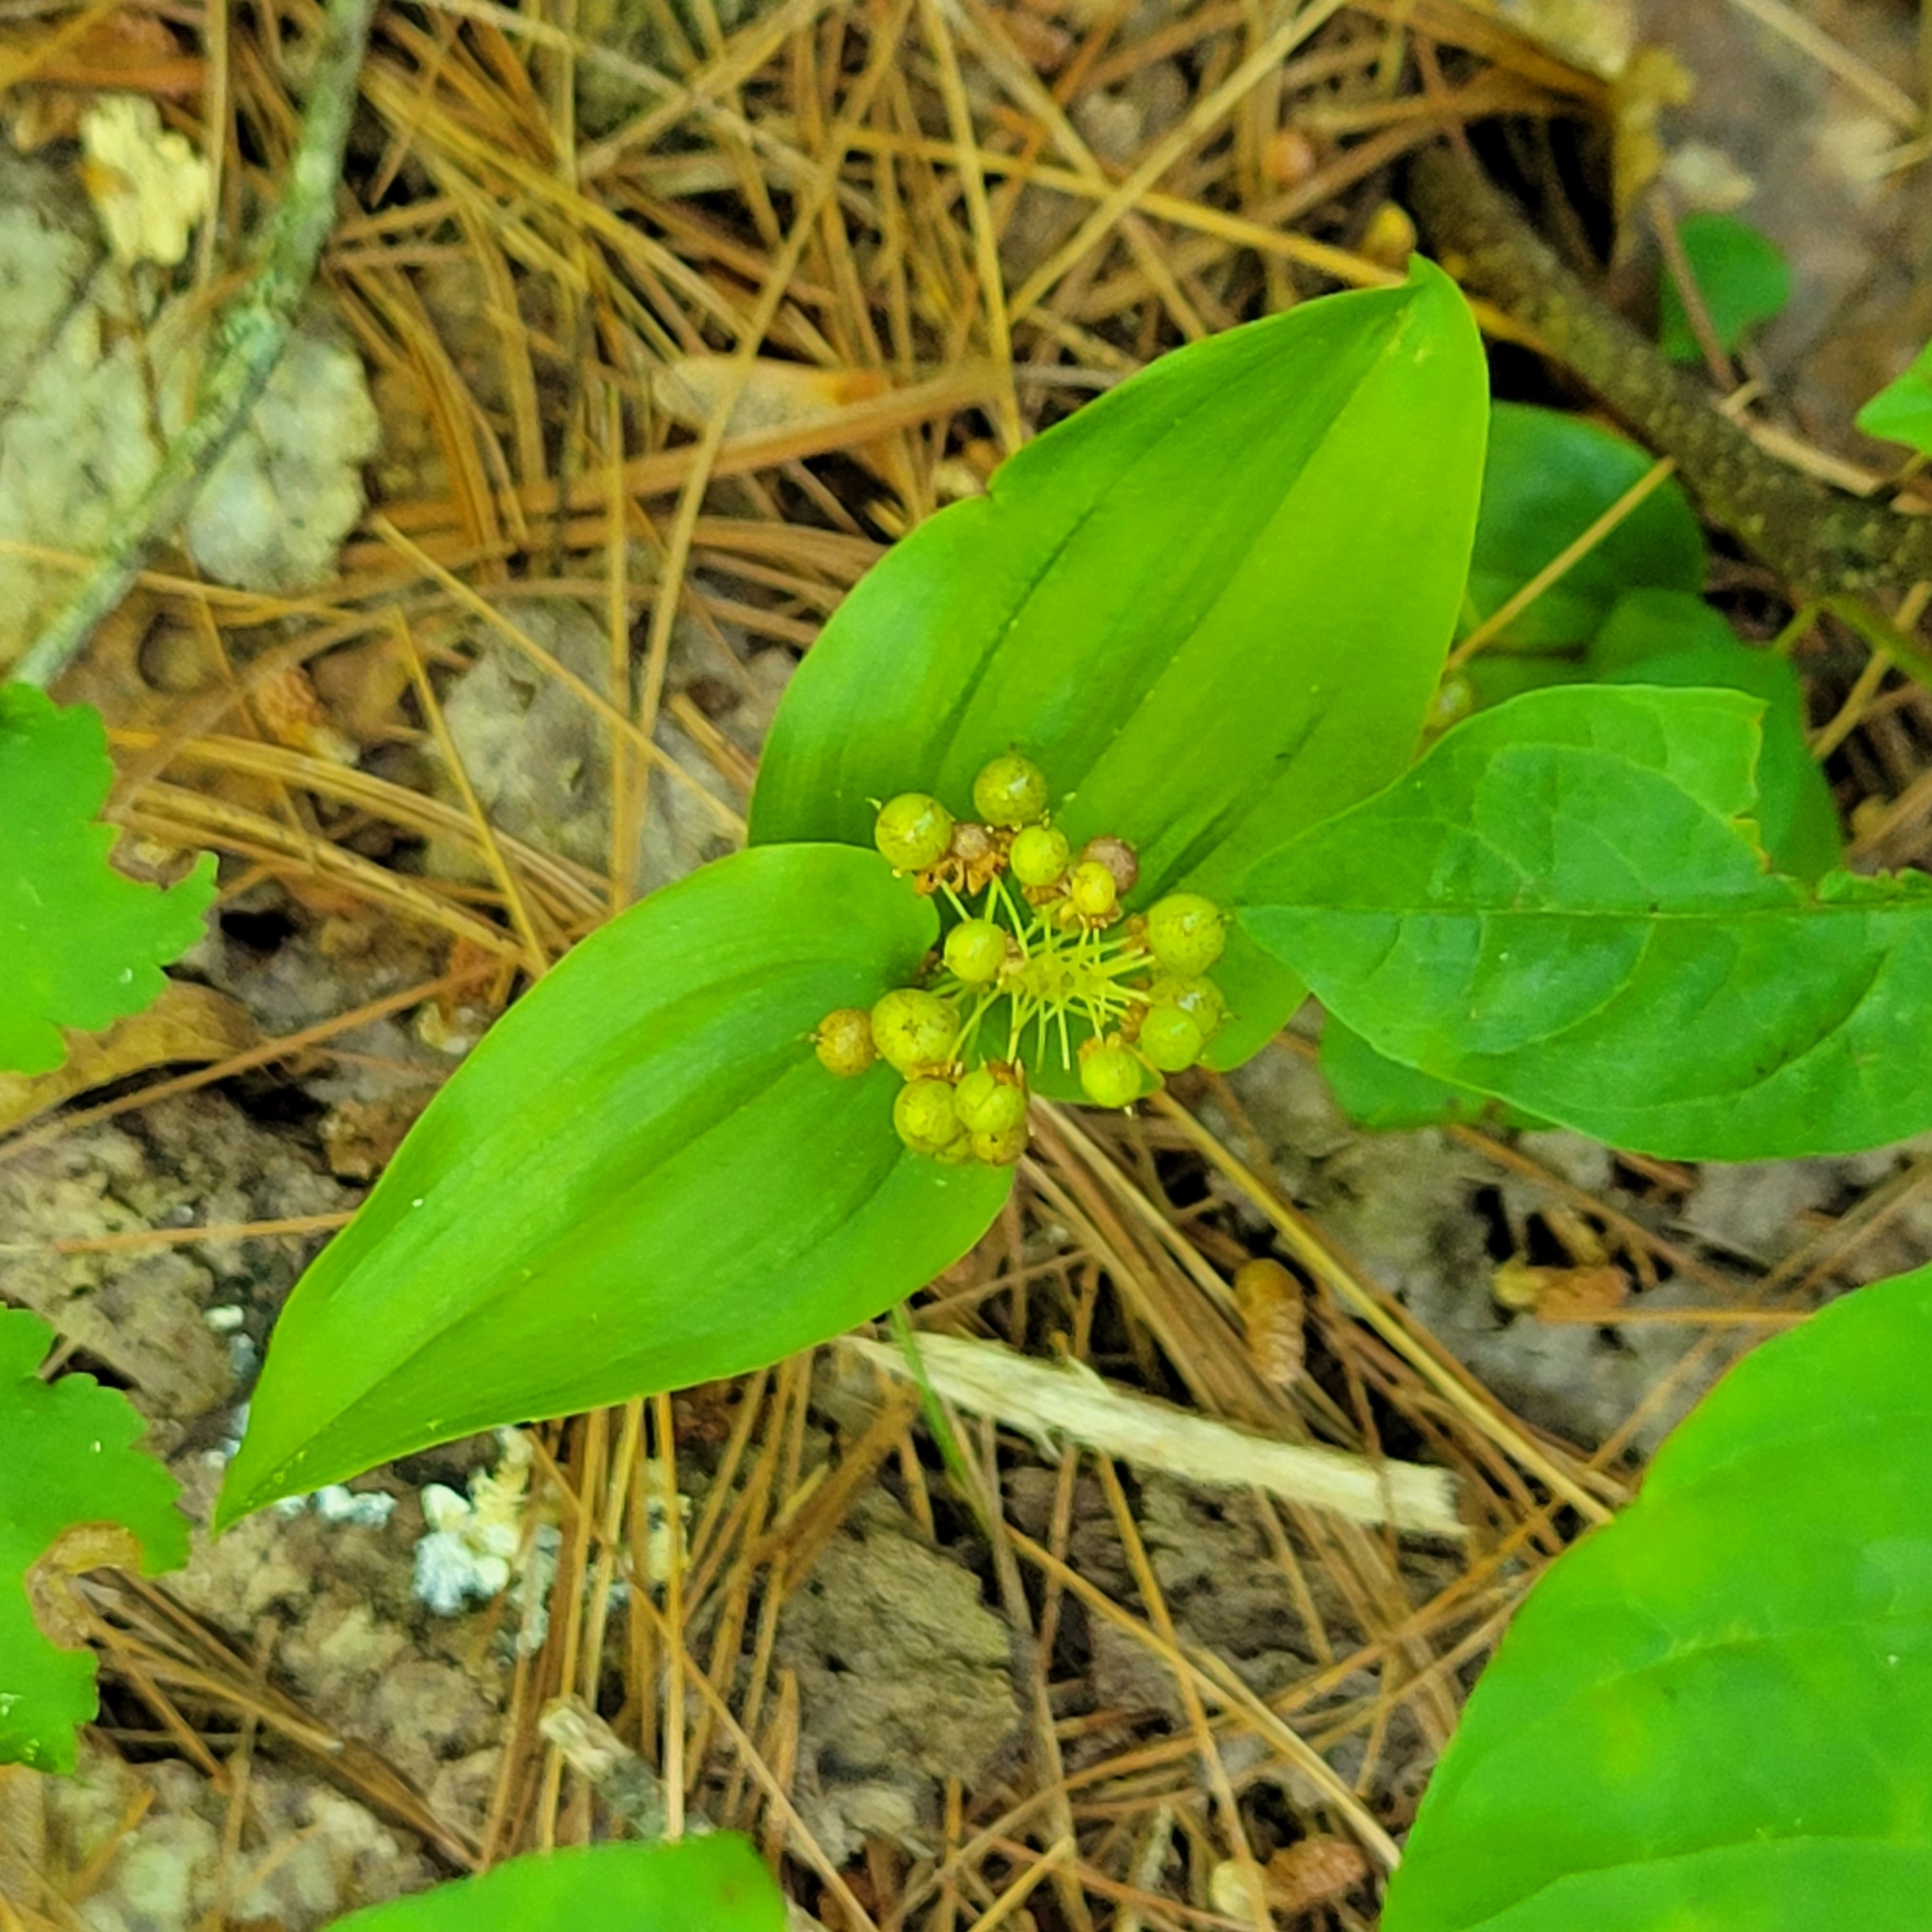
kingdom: Plantae
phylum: Tracheophyta
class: Liliopsida
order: Asparagales
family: Asparagaceae
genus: Maianthemum
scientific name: Maianthemum canadense
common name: False lily-of-the-valley
